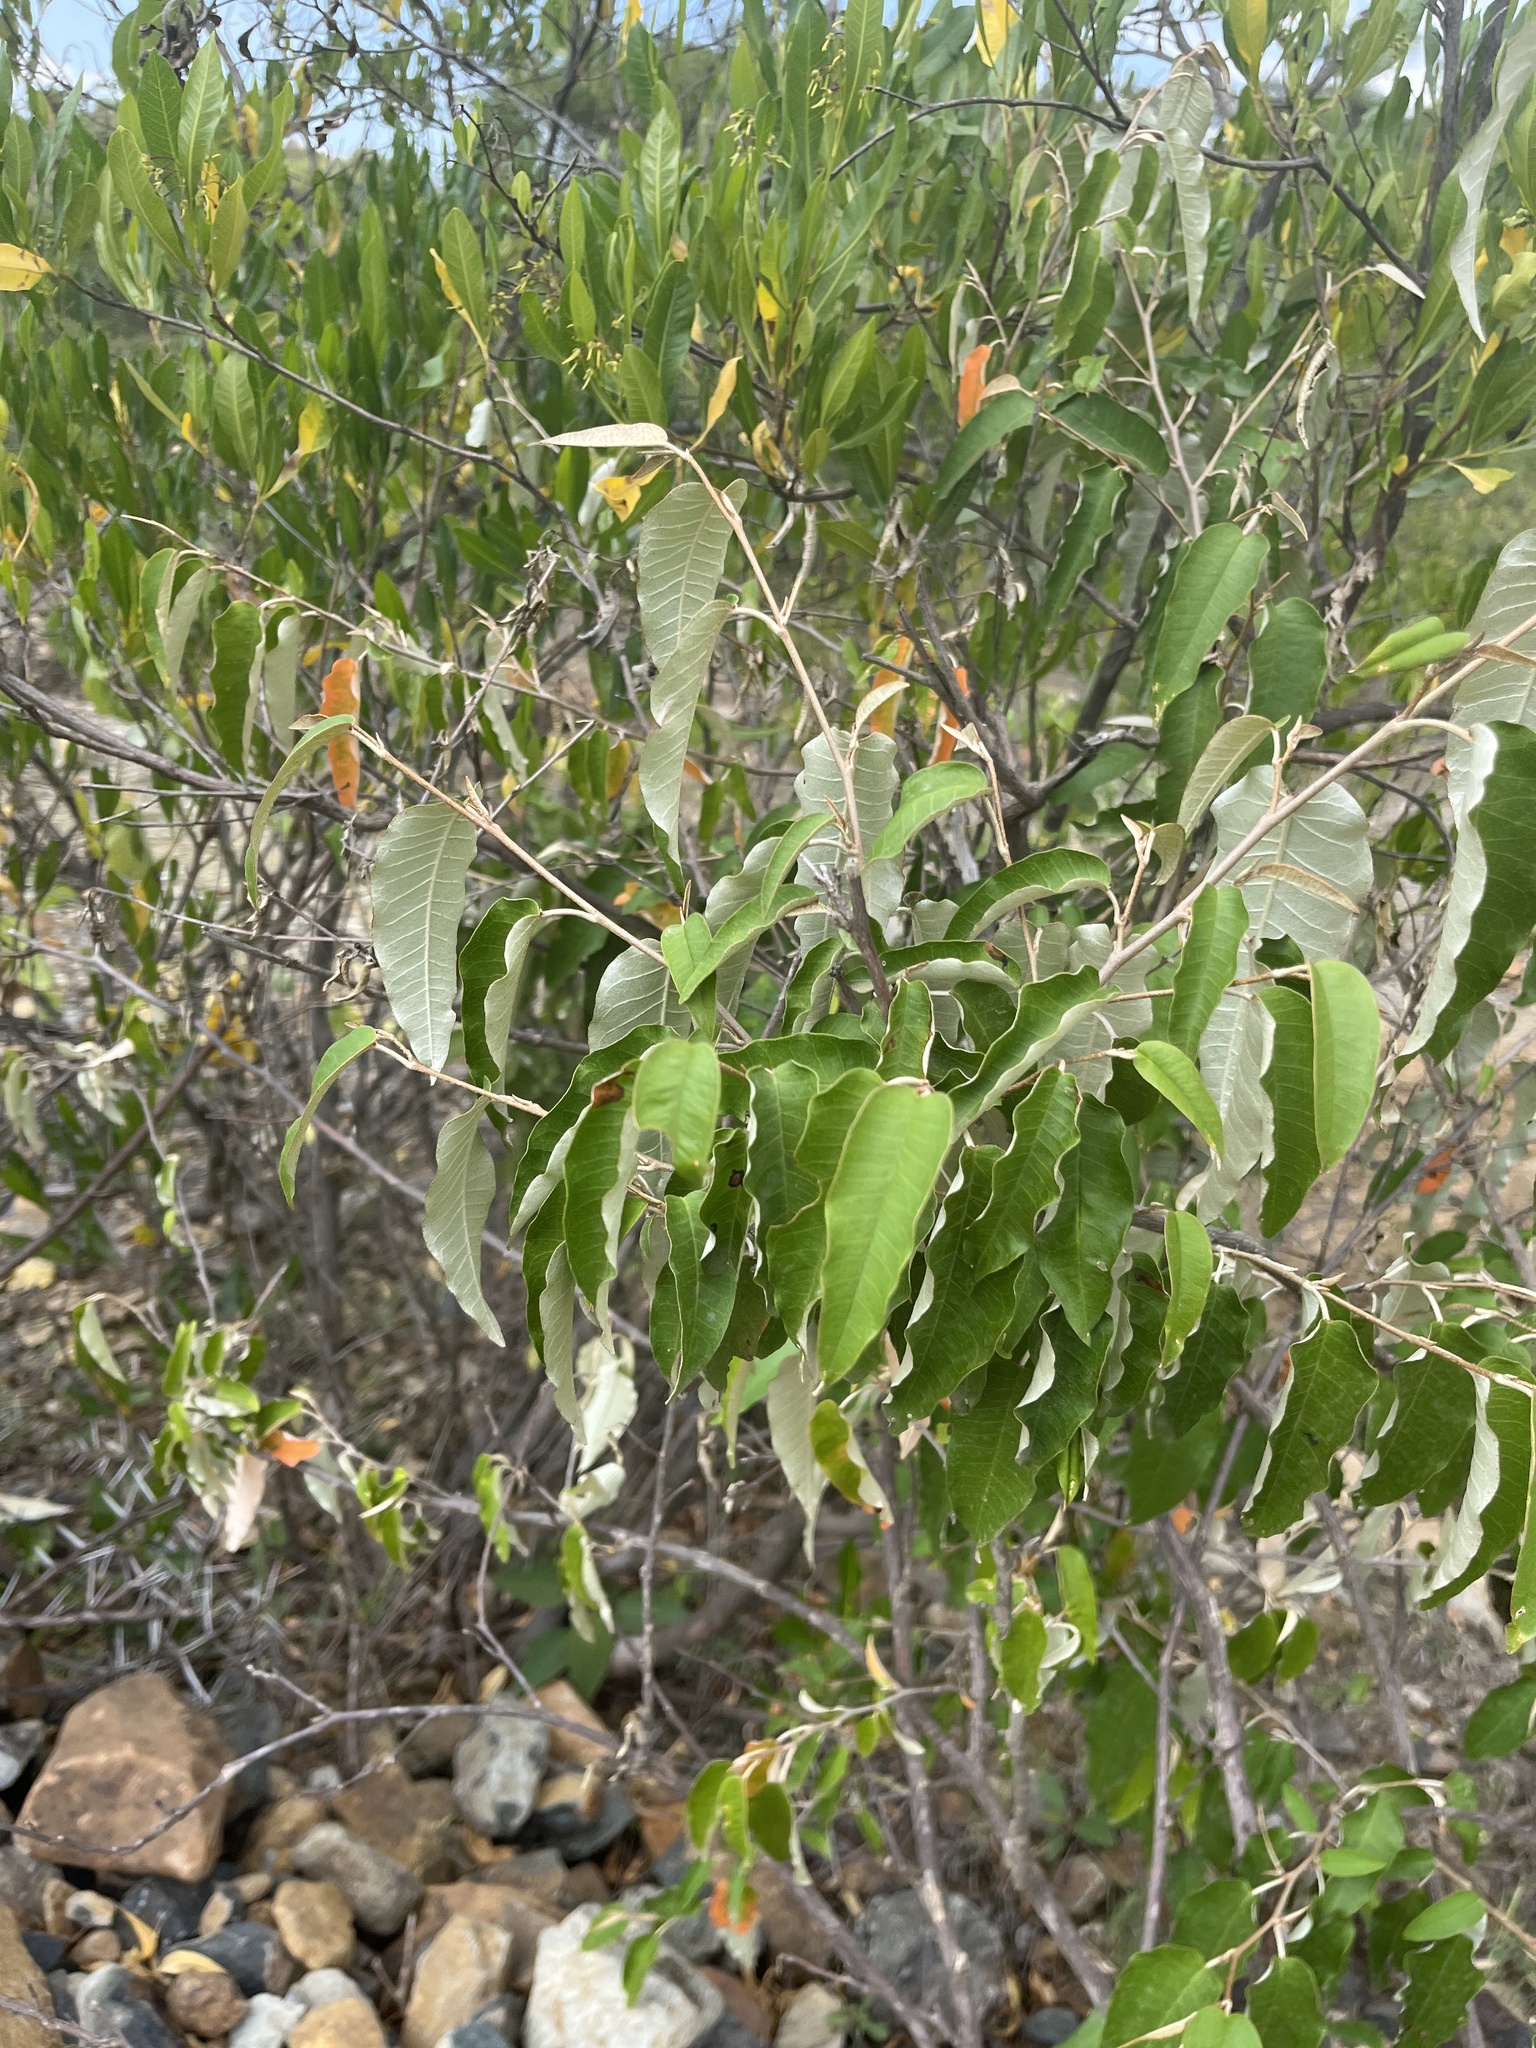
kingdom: Plantae
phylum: Tracheophyta
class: Magnoliopsida
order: Malpighiales
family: Euphorbiaceae
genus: Croton
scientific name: Croton dichogamus
